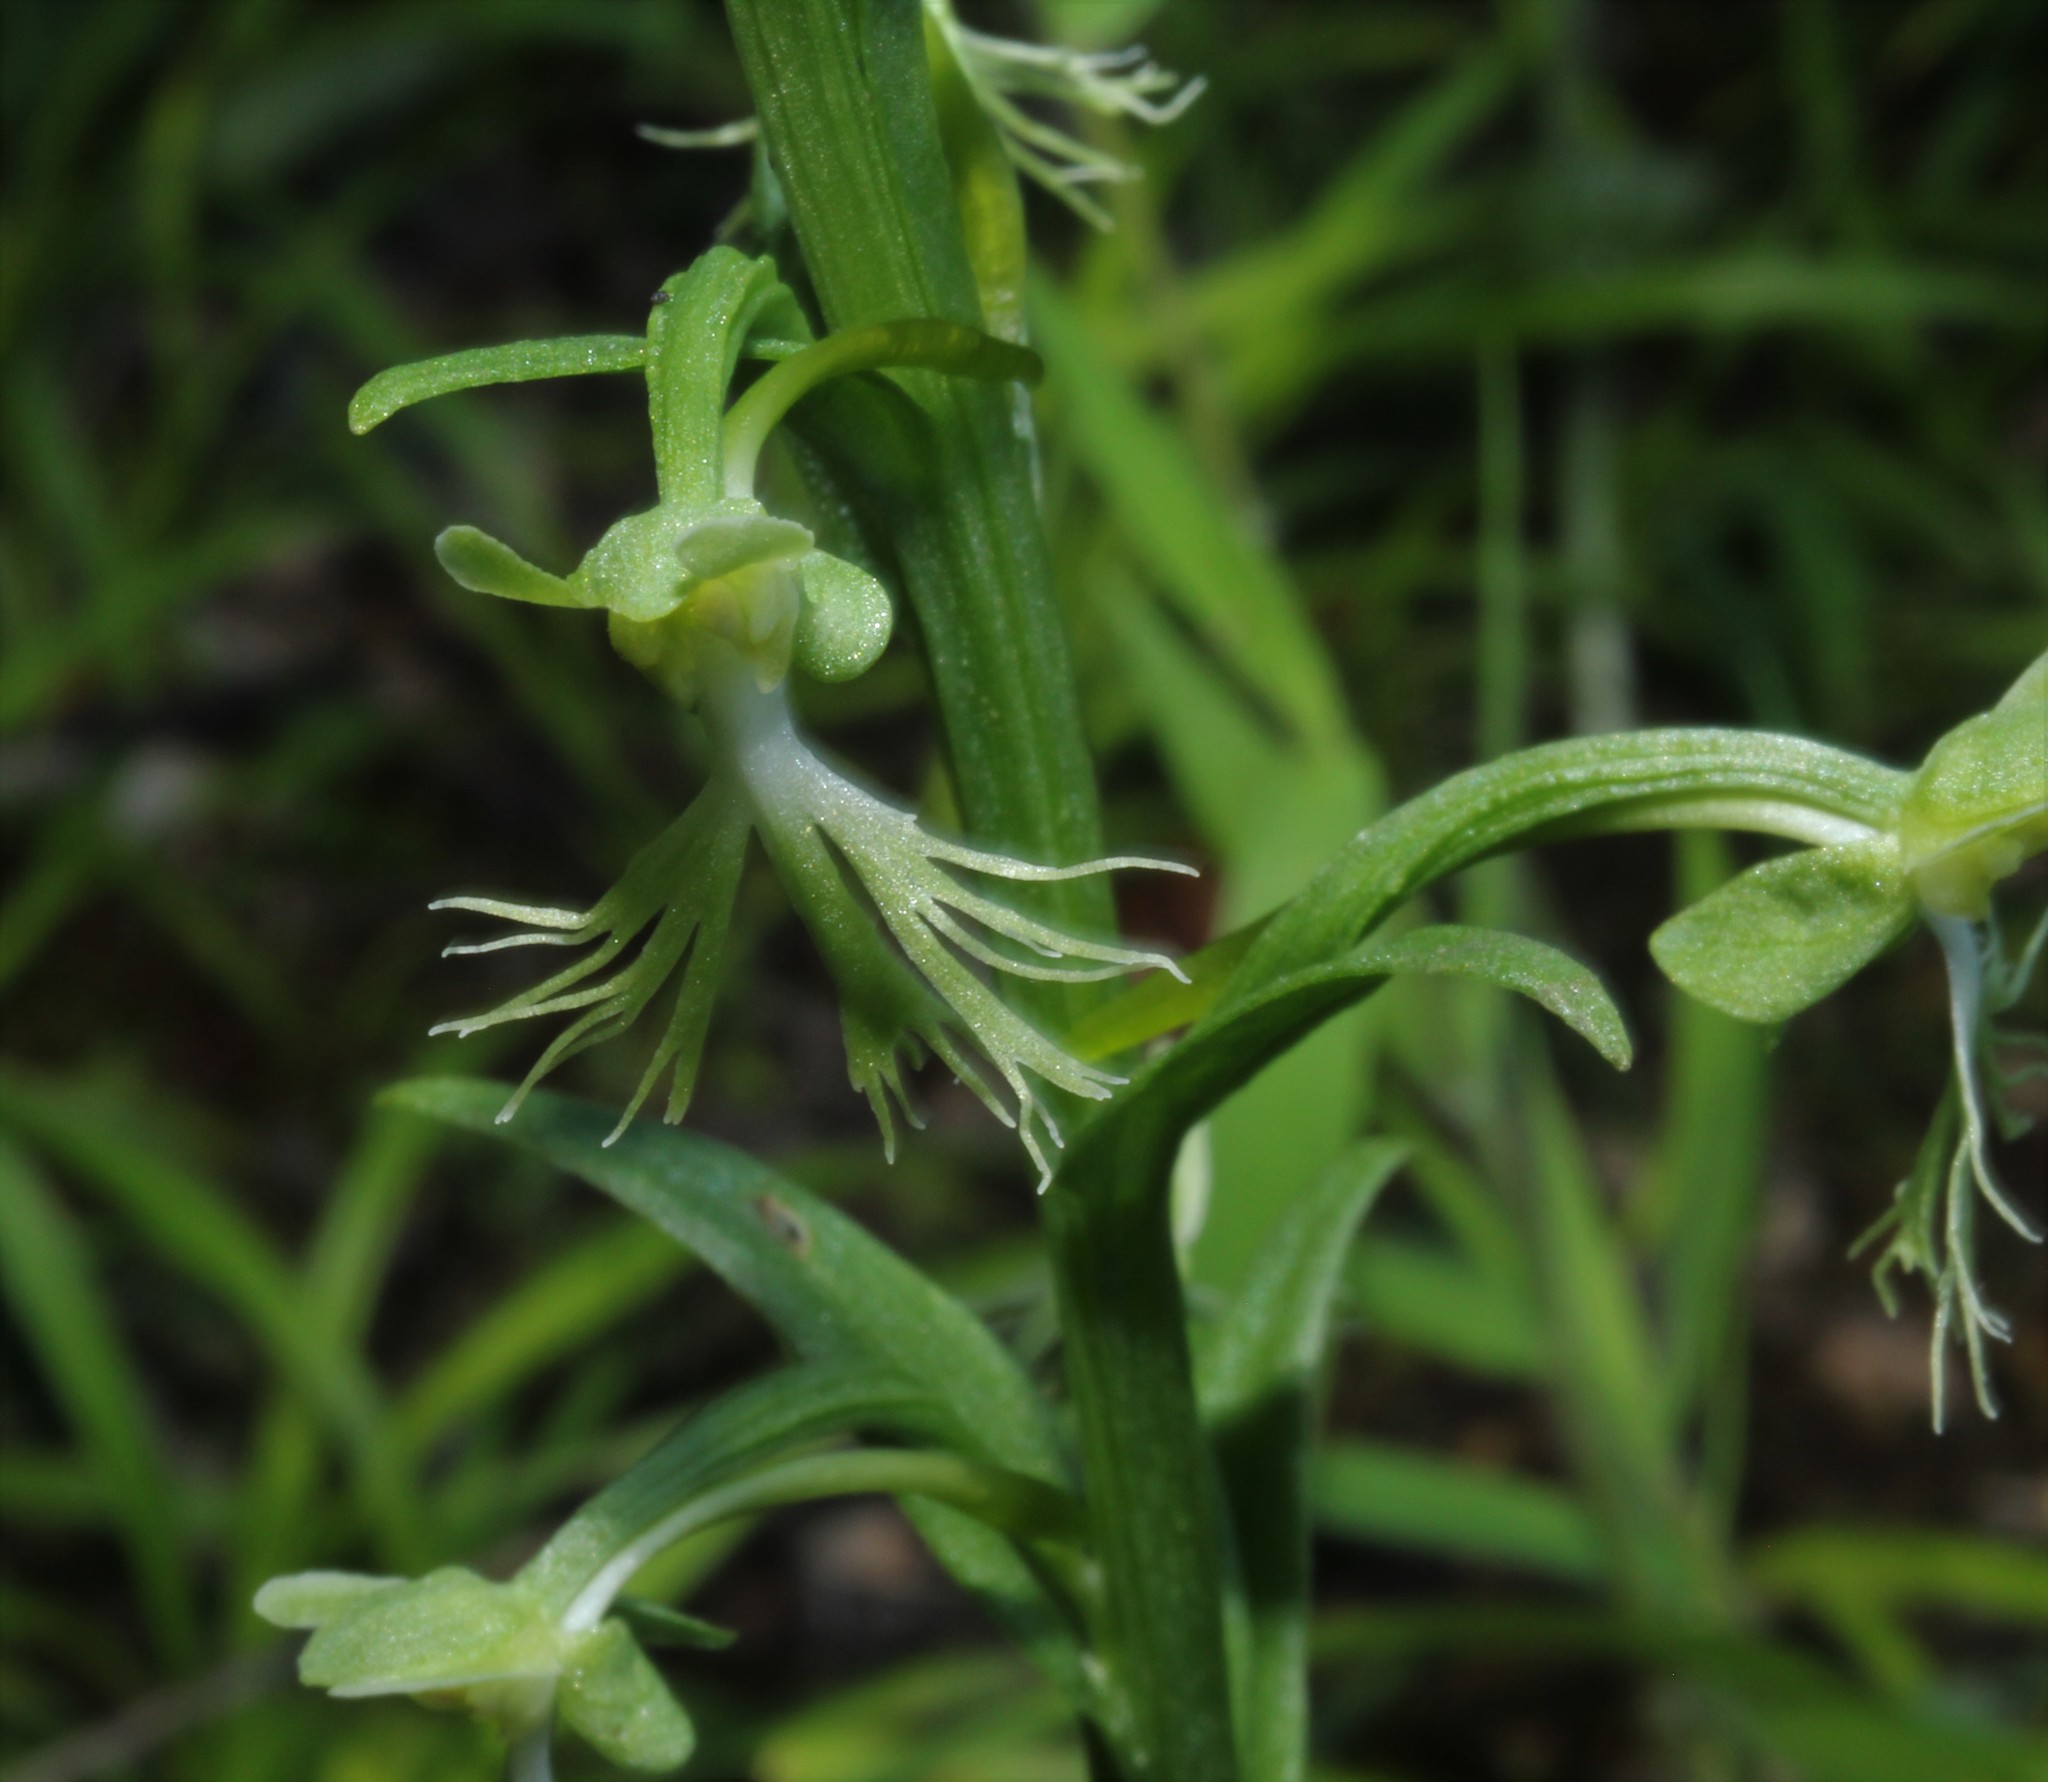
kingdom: Plantae
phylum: Tracheophyta
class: Liliopsida
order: Asparagales
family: Orchidaceae
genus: Platanthera
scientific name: Platanthera lacera
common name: Green fringed orchid
